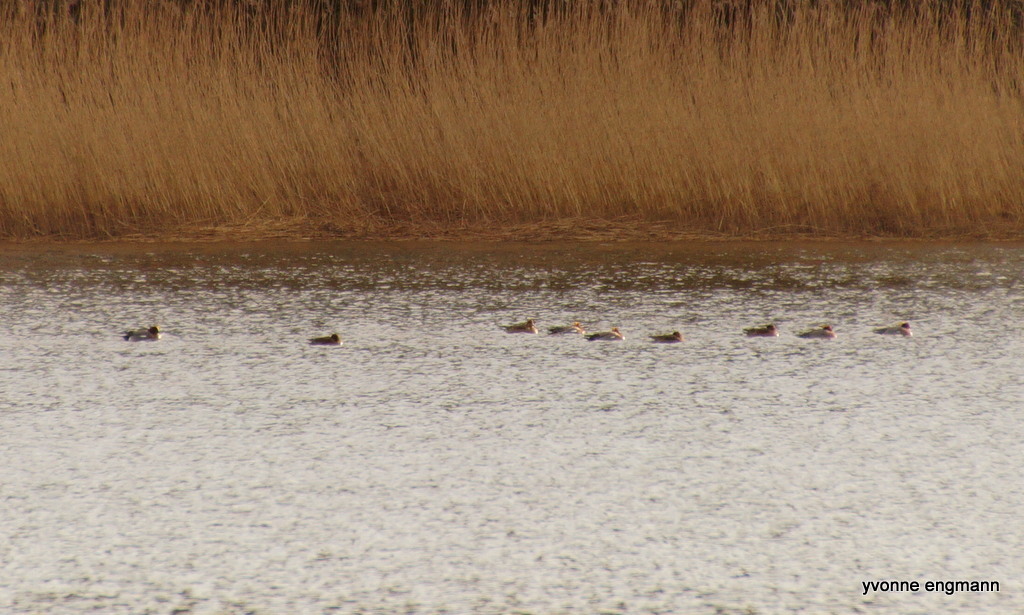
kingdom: Animalia
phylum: Chordata
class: Aves
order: Anseriformes
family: Anatidae
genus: Mareca
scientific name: Mareca penelope
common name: Eurasian wigeon
